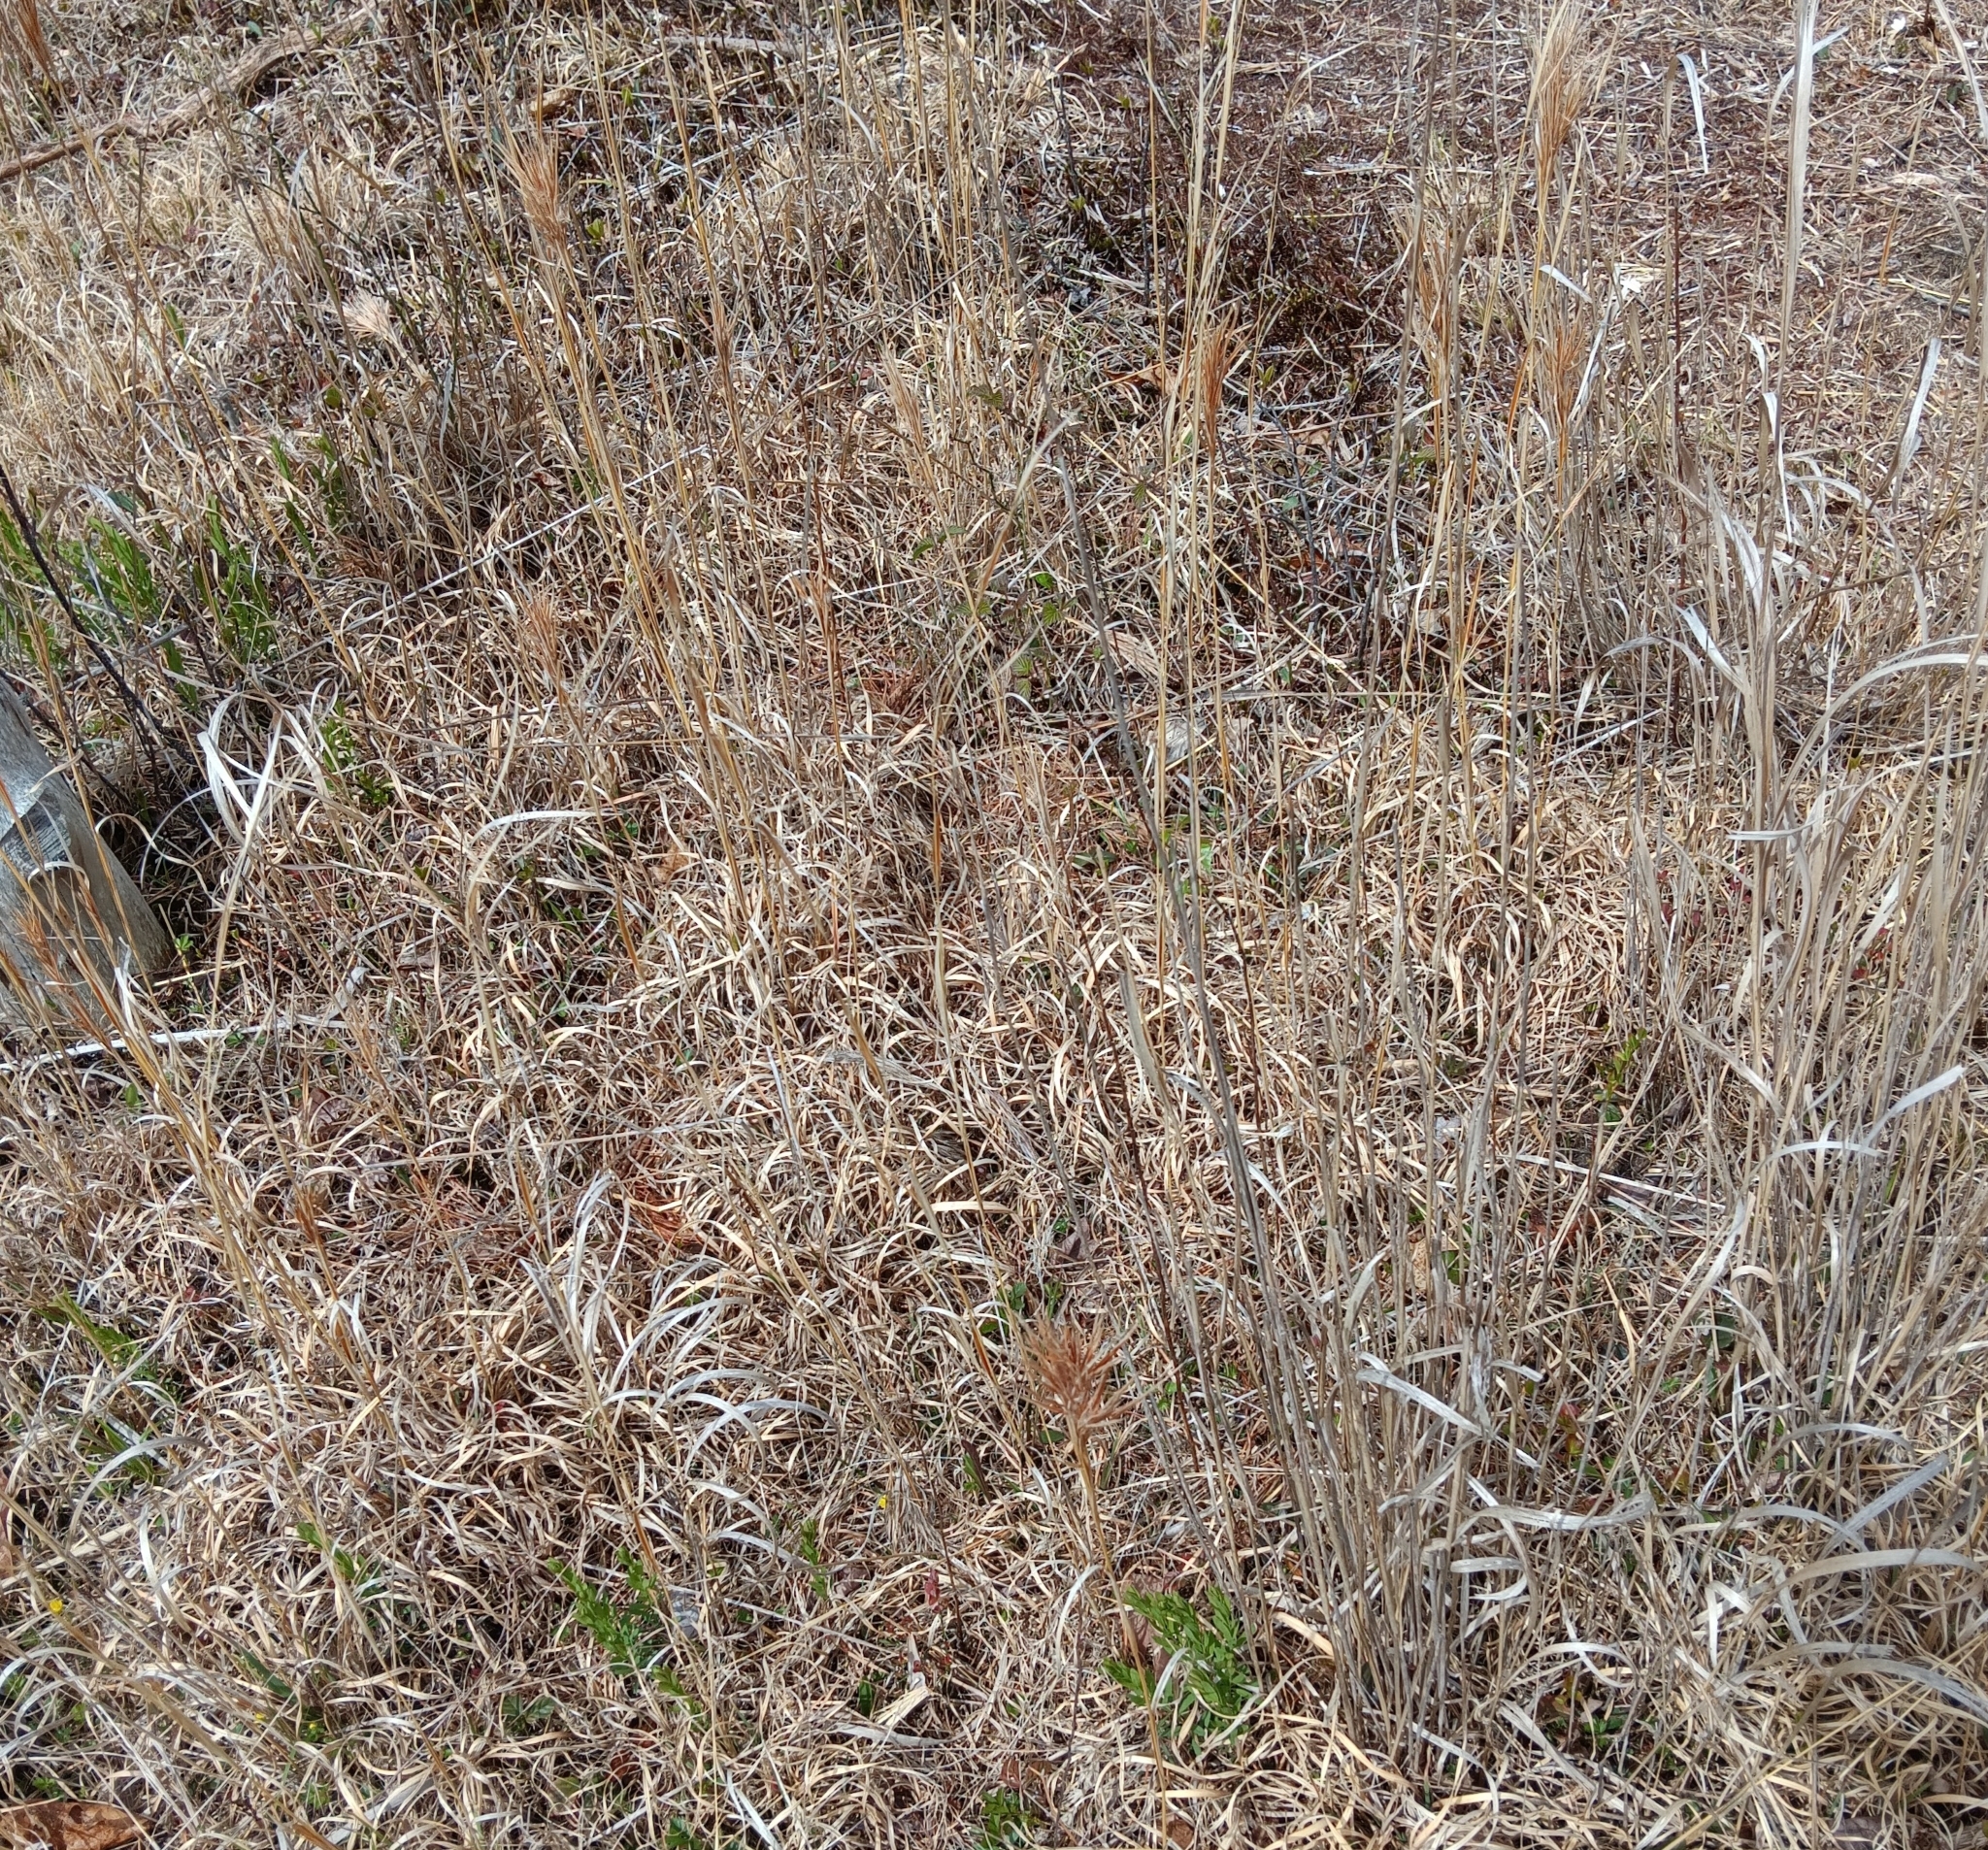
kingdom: Plantae
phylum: Tracheophyta
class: Liliopsida
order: Poales
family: Poaceae
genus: Andropogon
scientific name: Andropogon glomeratus
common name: Bushy beard grass
